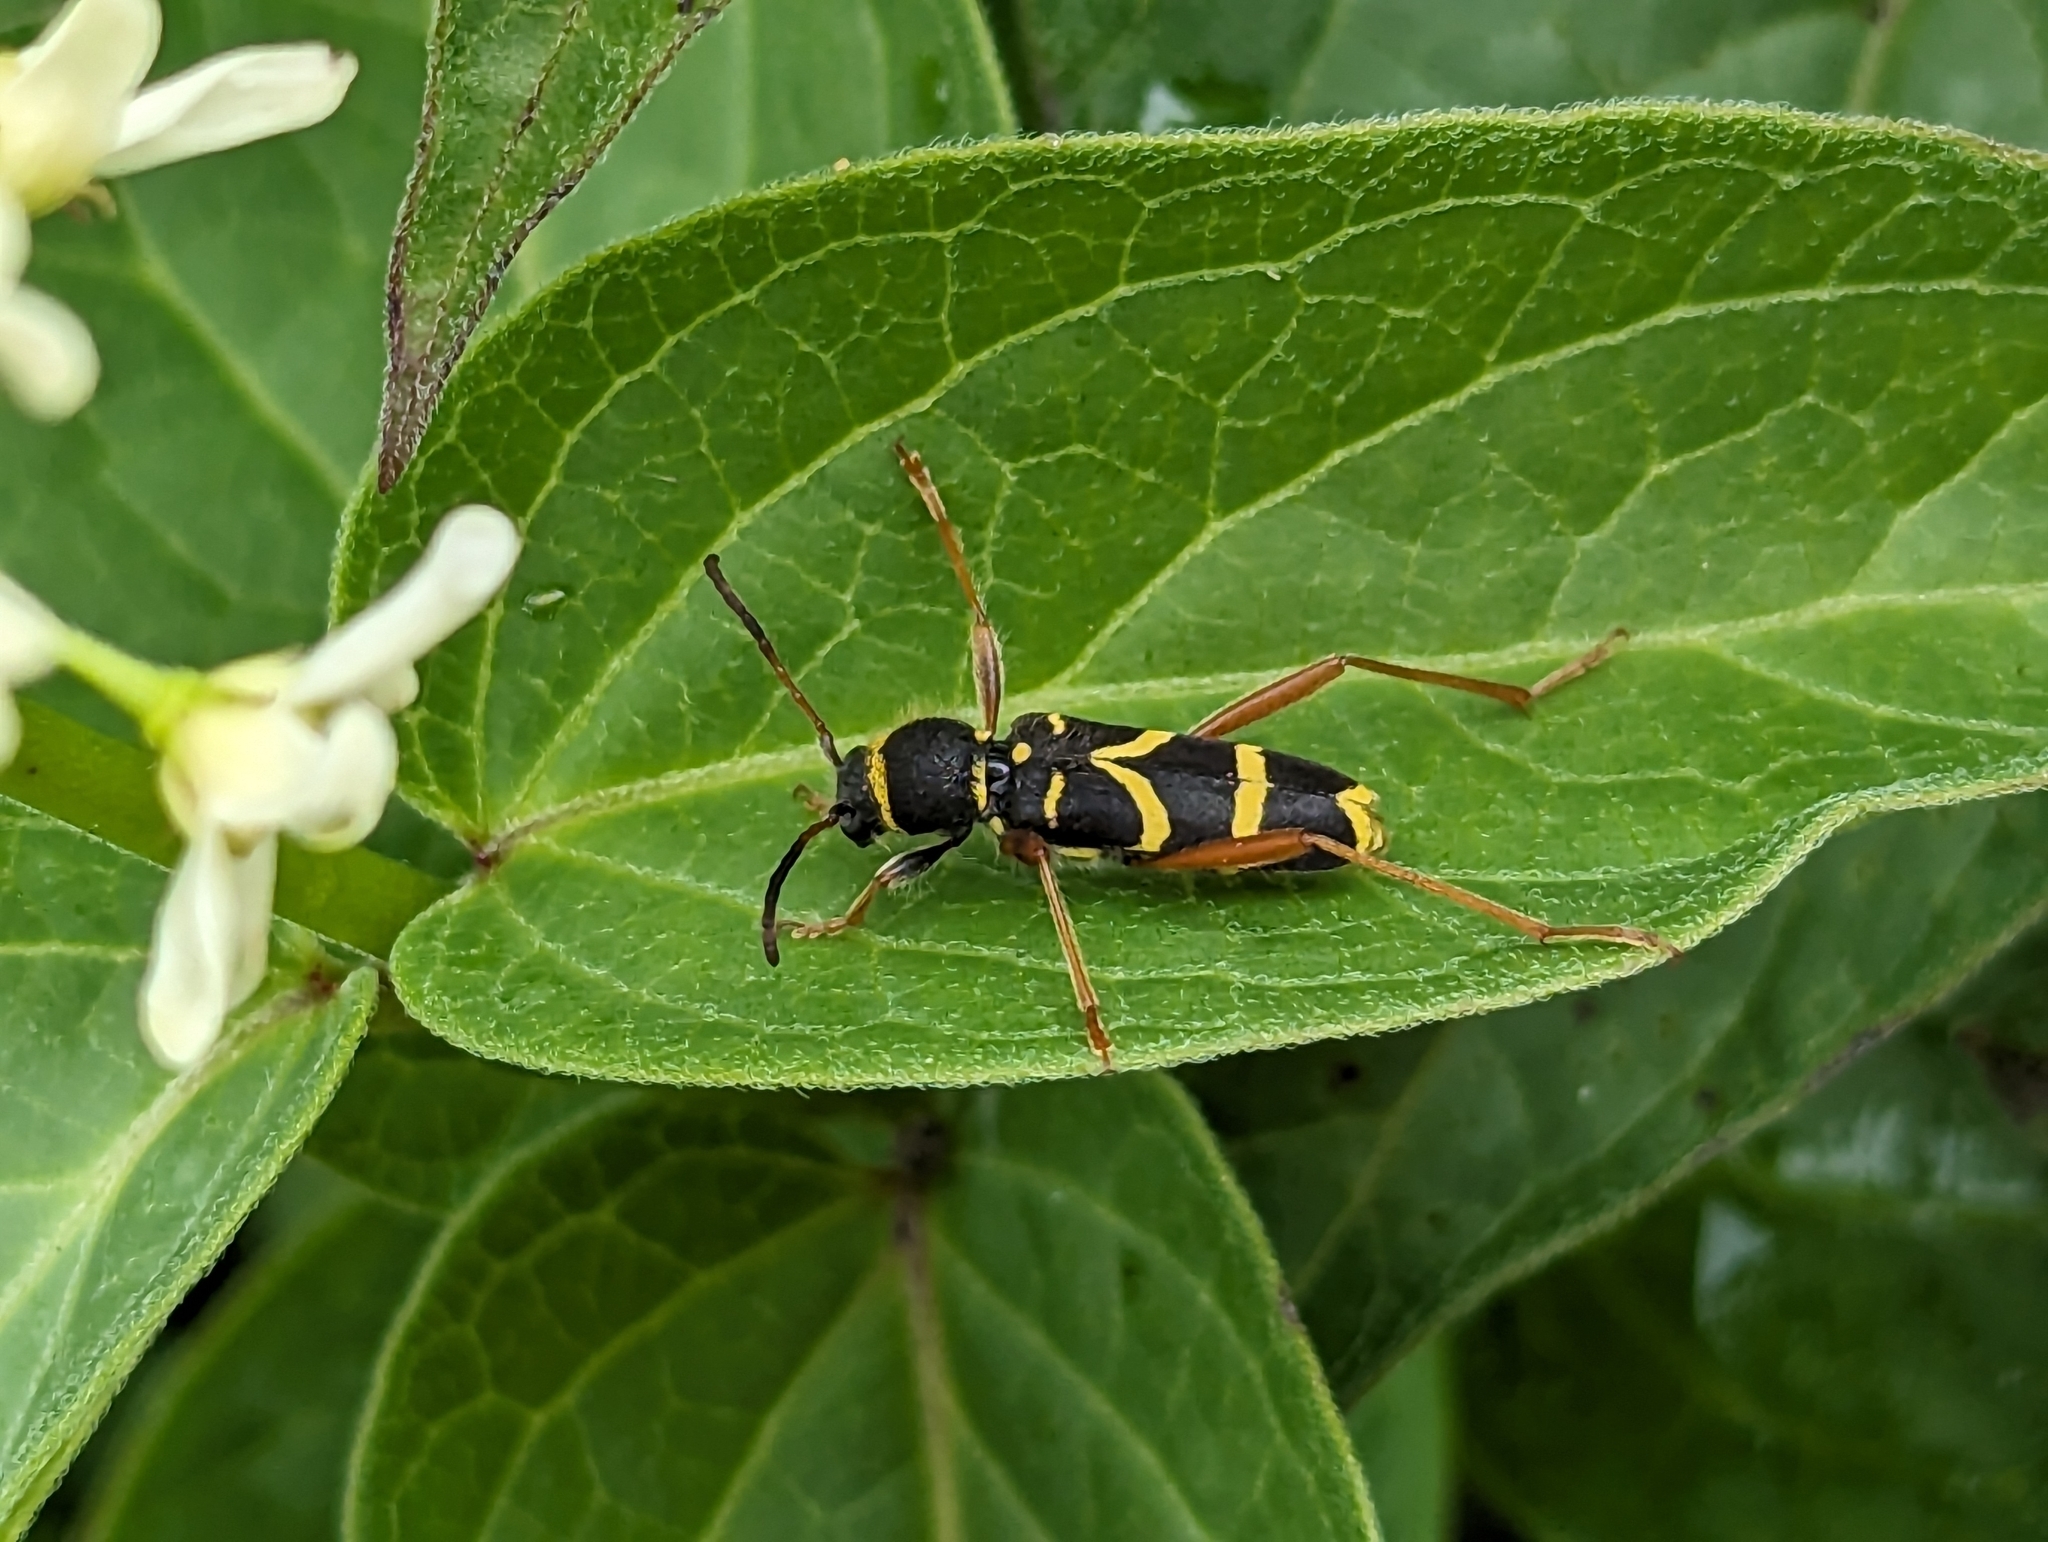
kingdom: Animalia
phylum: Arthropoda
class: Insecta
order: Coleoptera
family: Cerambycidae
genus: Clytus
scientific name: Clytus arietis
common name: Wasp beetle
